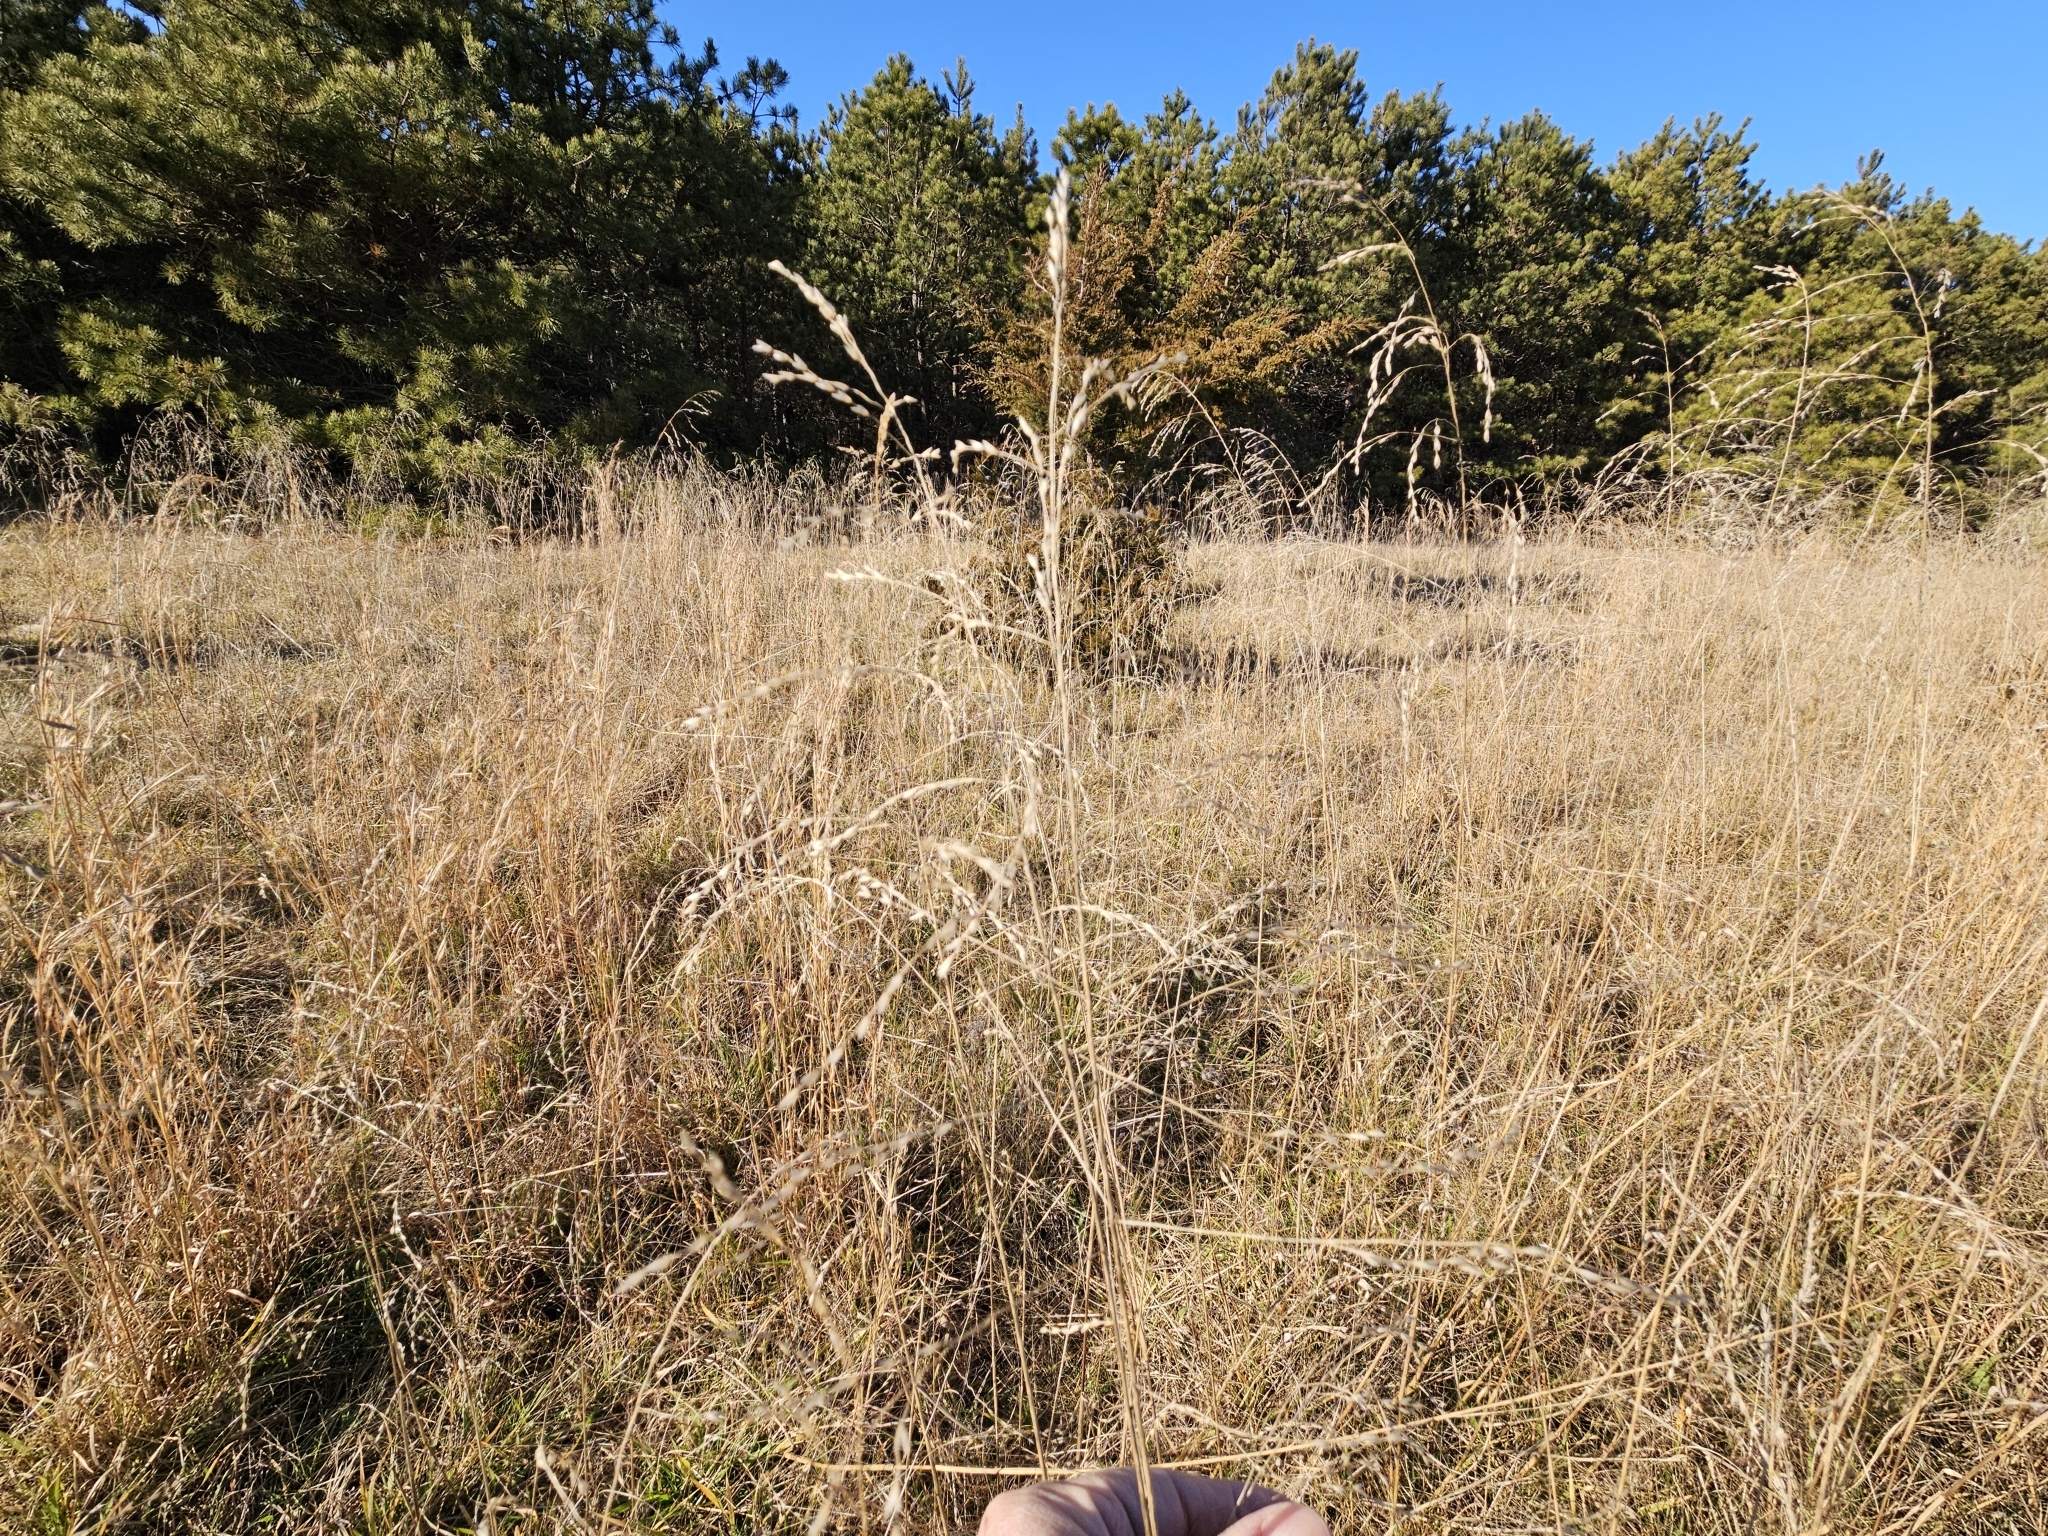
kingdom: Plantae
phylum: Tracheophyta
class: Liliopsida
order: Poales
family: Poaceae
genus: Tridens
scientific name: Tridens flavus
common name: Purpletop
